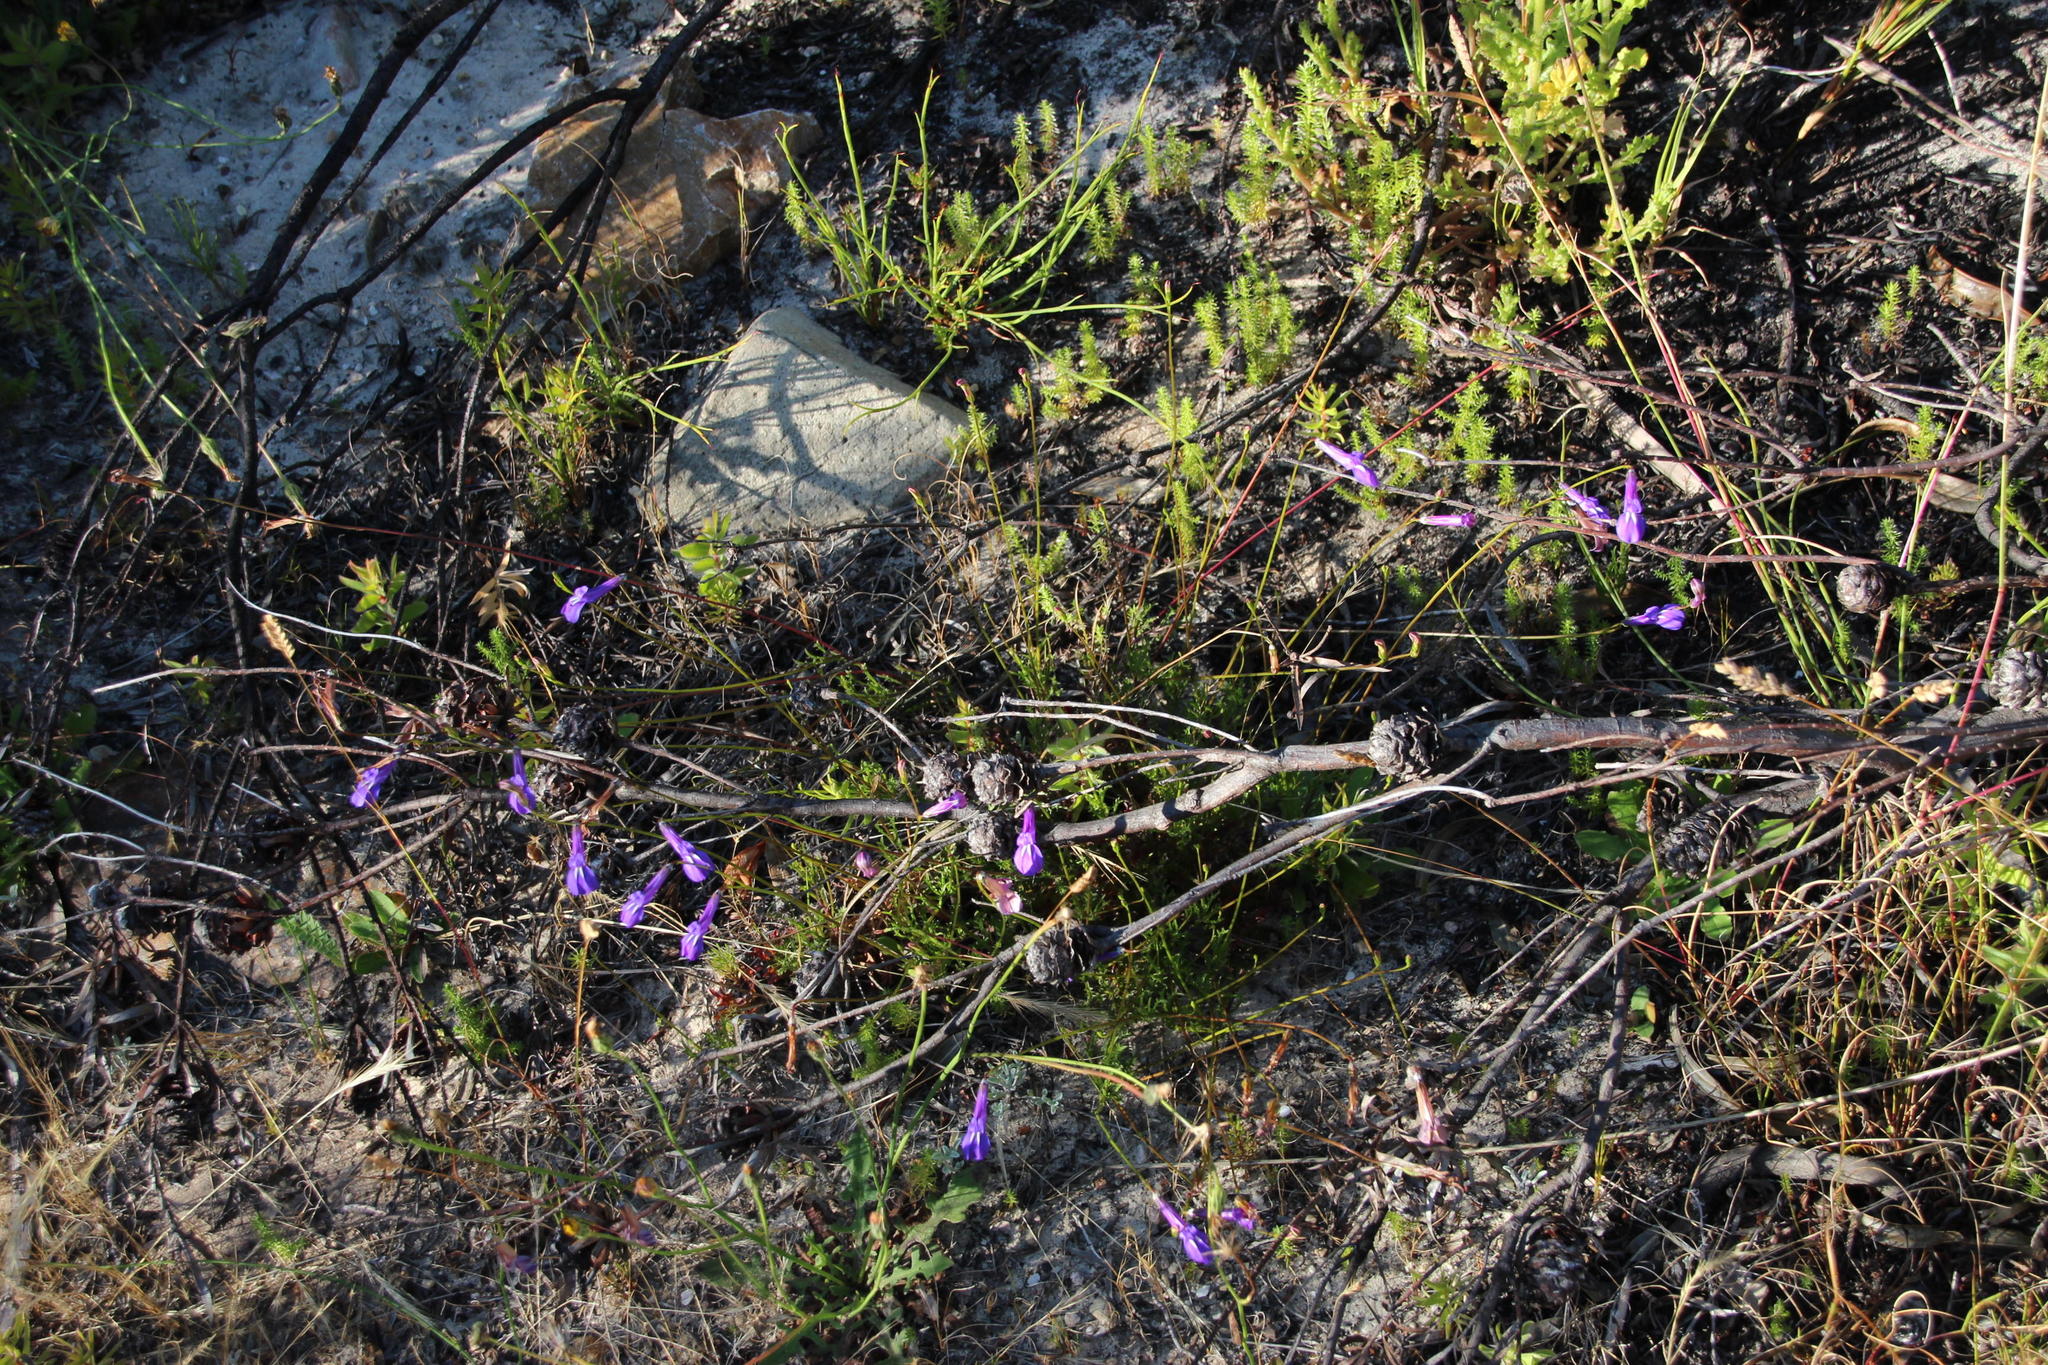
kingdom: Plantae
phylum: Tracheophyta
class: Magnoliopsida
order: Asterales
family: Campanulaceae
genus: Lobelia
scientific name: Lobelia coronopifolia
